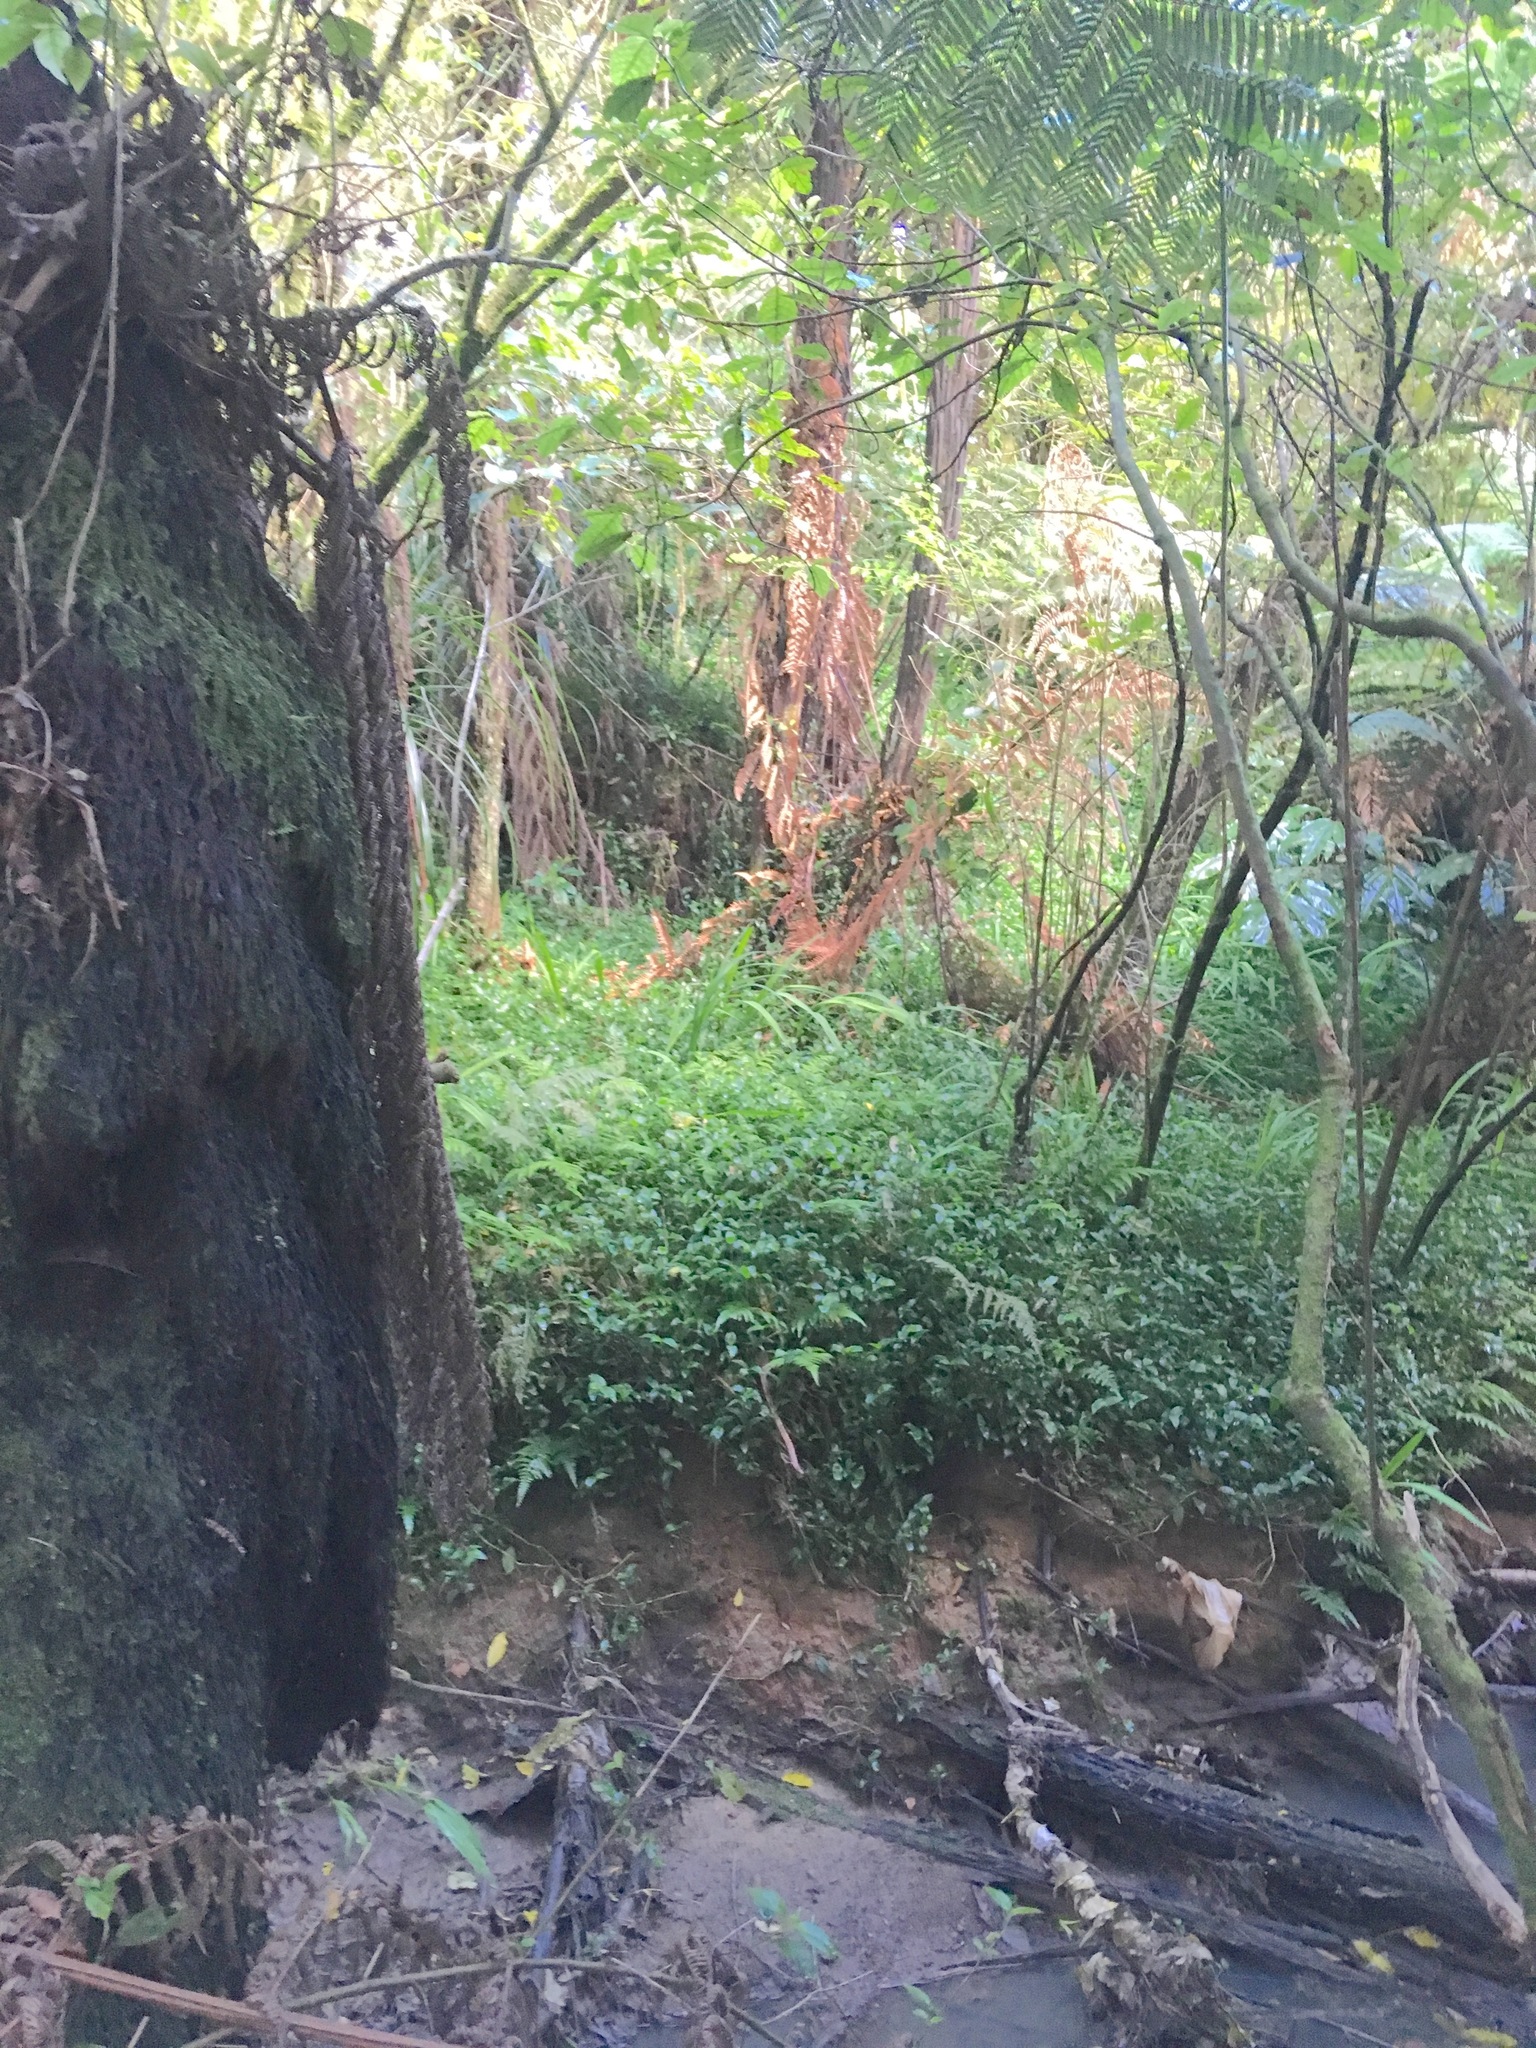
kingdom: Plantae
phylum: Tracheophyta
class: Liliopsida
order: Commelinales
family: Commelinaceae
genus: Tradescantia
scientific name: Tradescantia fluminensis
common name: Wandering-jew
